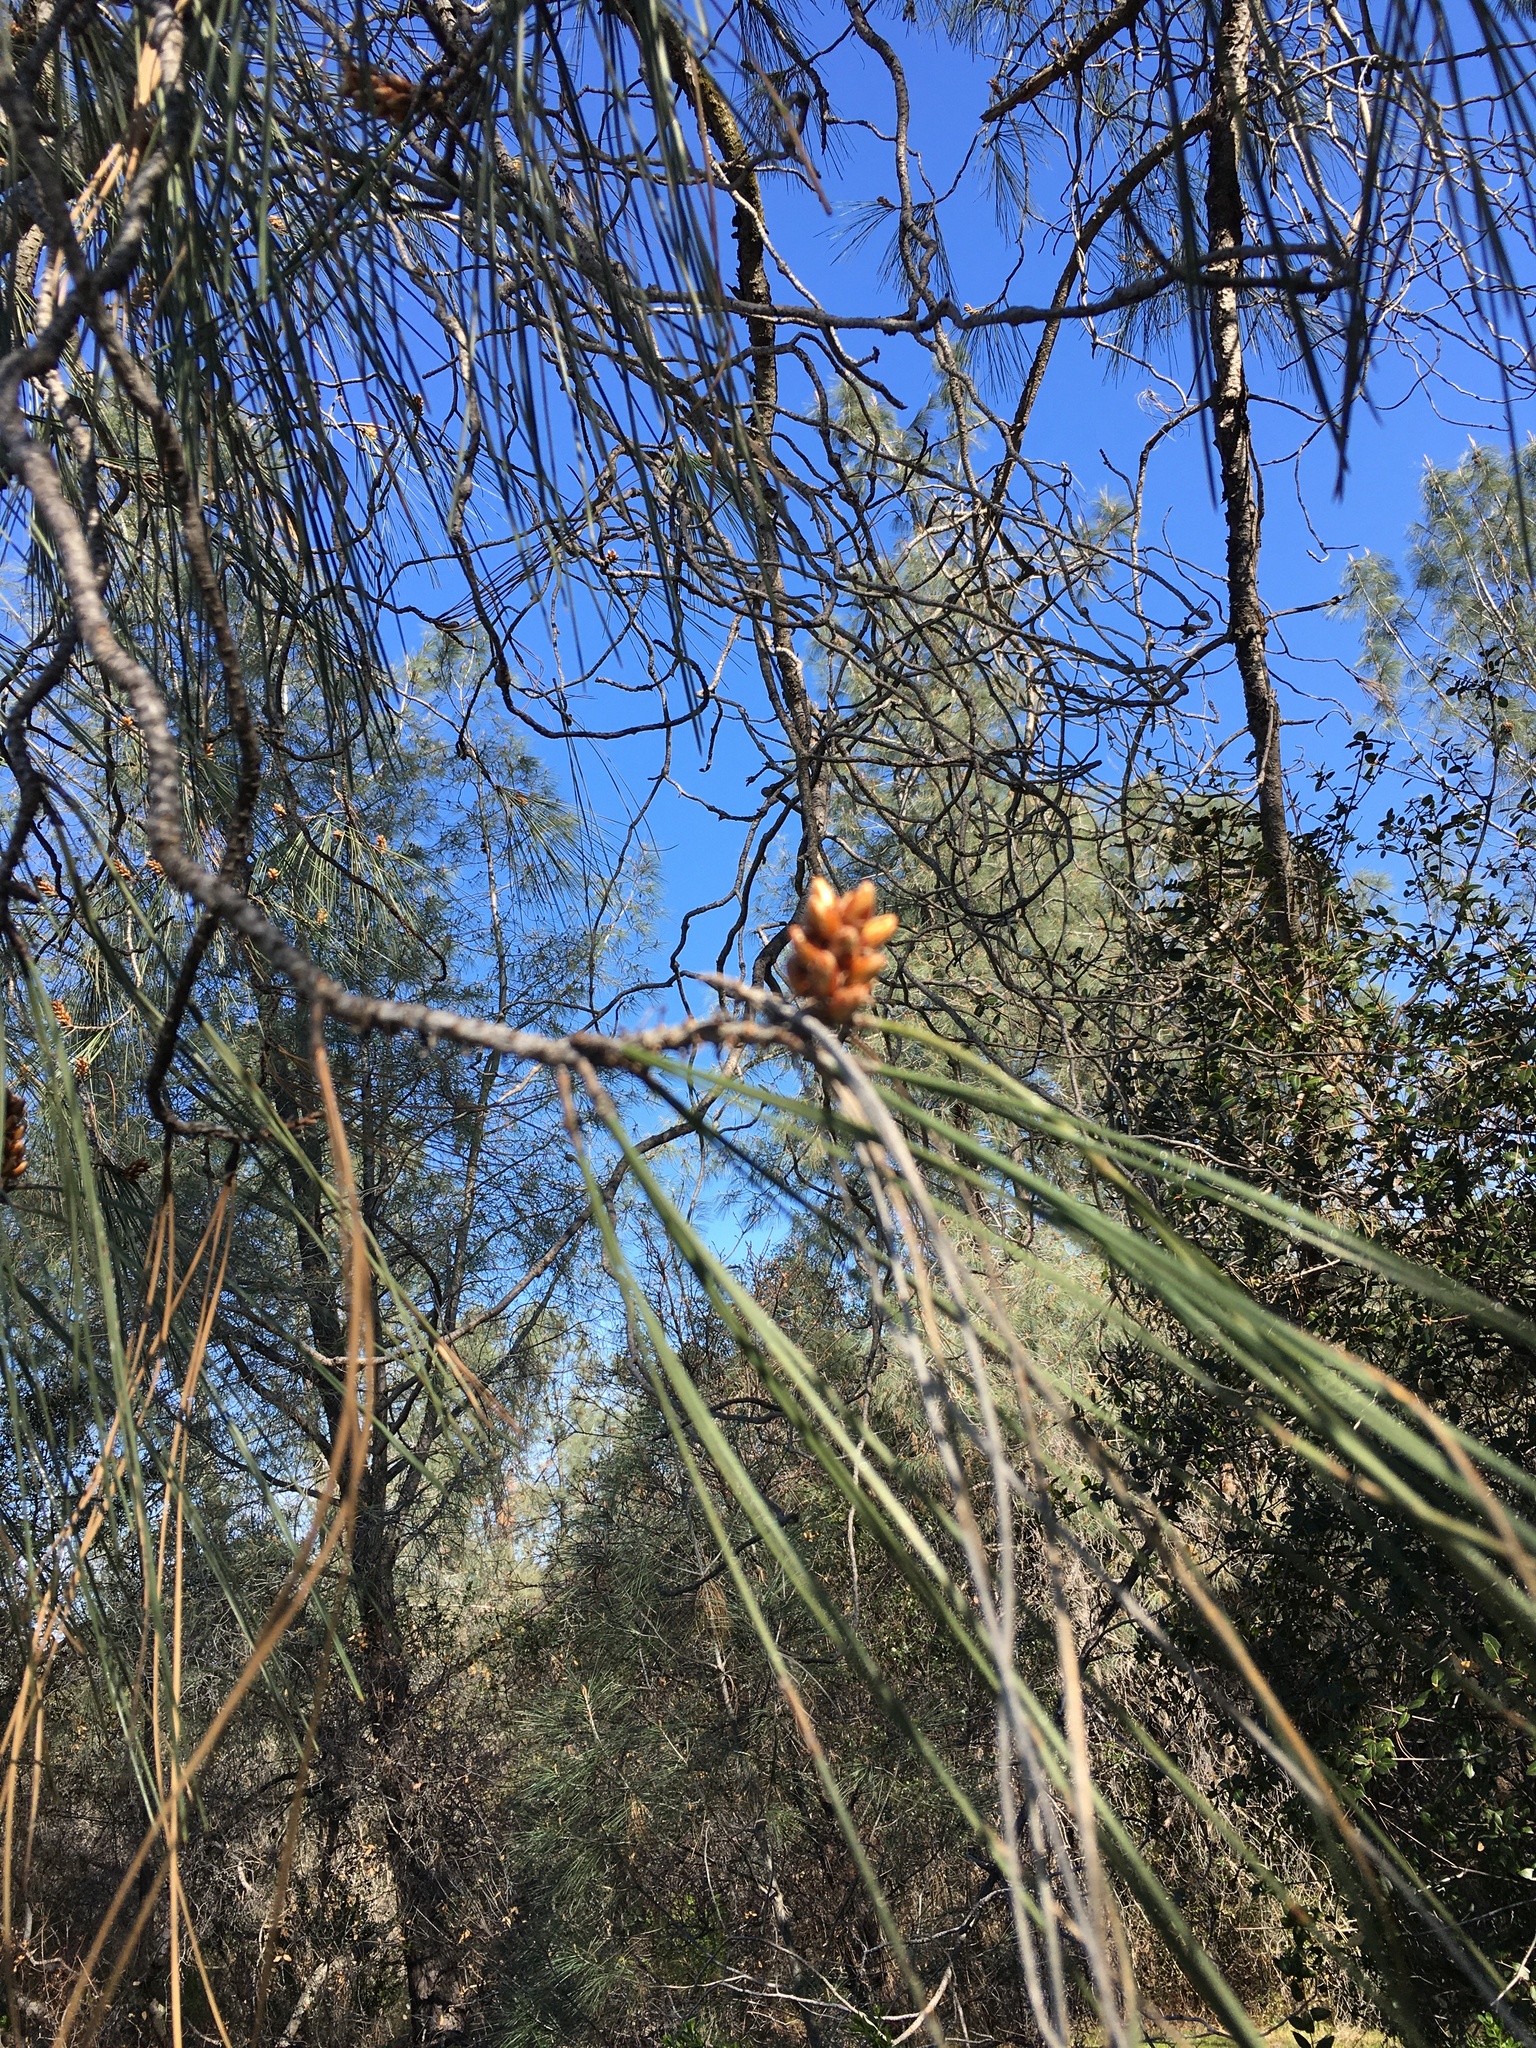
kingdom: Plantae
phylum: Tracheophyta
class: Pinopsida
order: Pinales
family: Pinaceae
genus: Pinus
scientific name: Pinus sabiniana
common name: Bull pine
